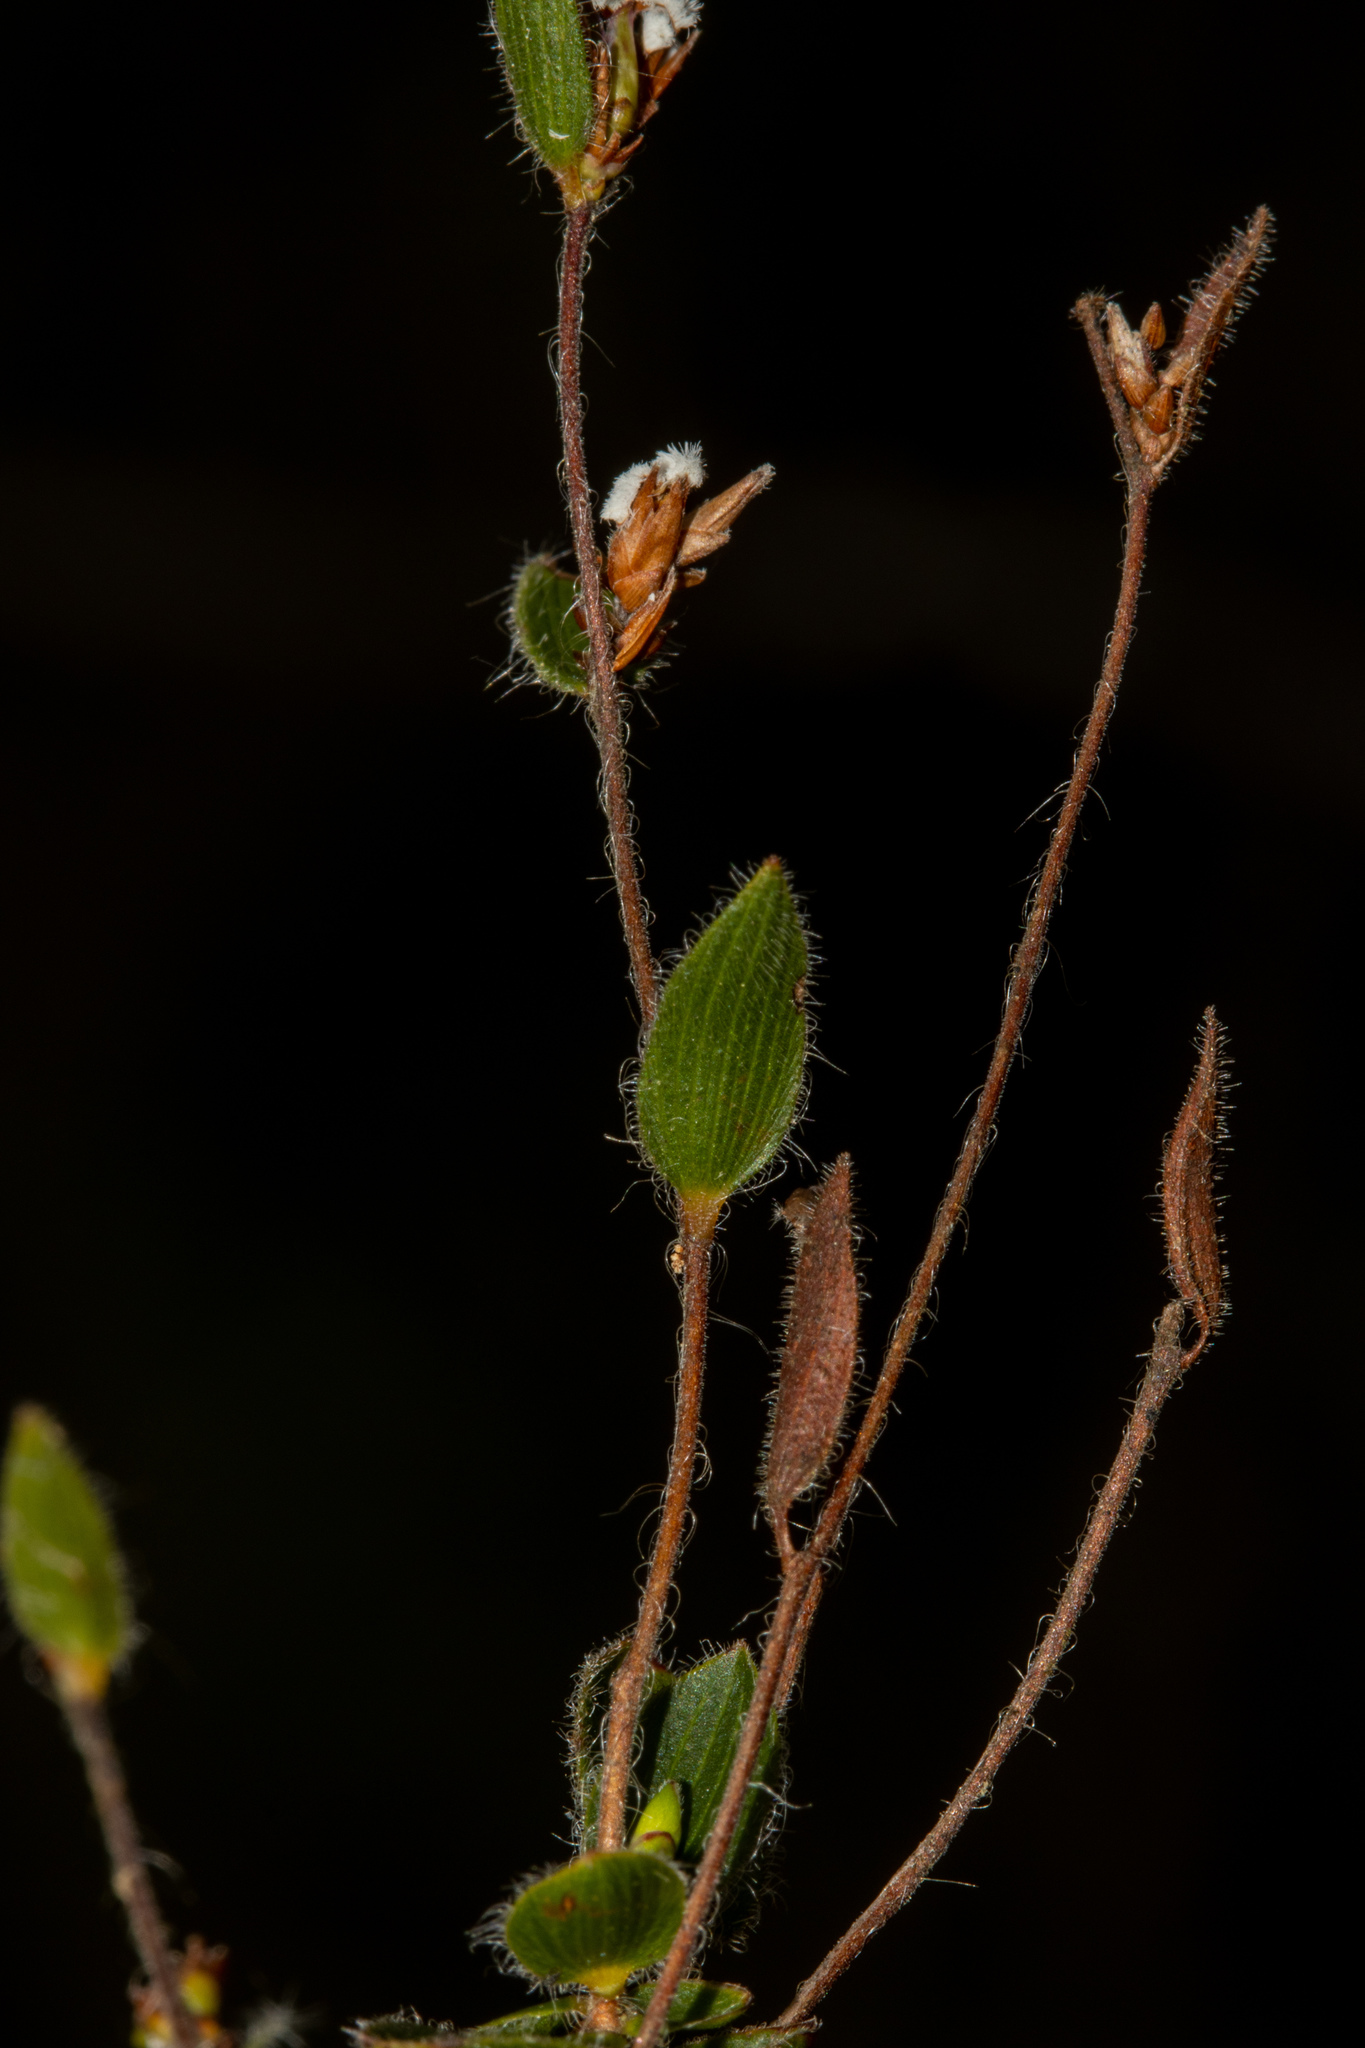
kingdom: Plantae
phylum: Tracheophyta
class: Magnoliopsida
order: Ericales
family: Ericaceae
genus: Leucopogon
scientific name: Leucopogon concurvus
